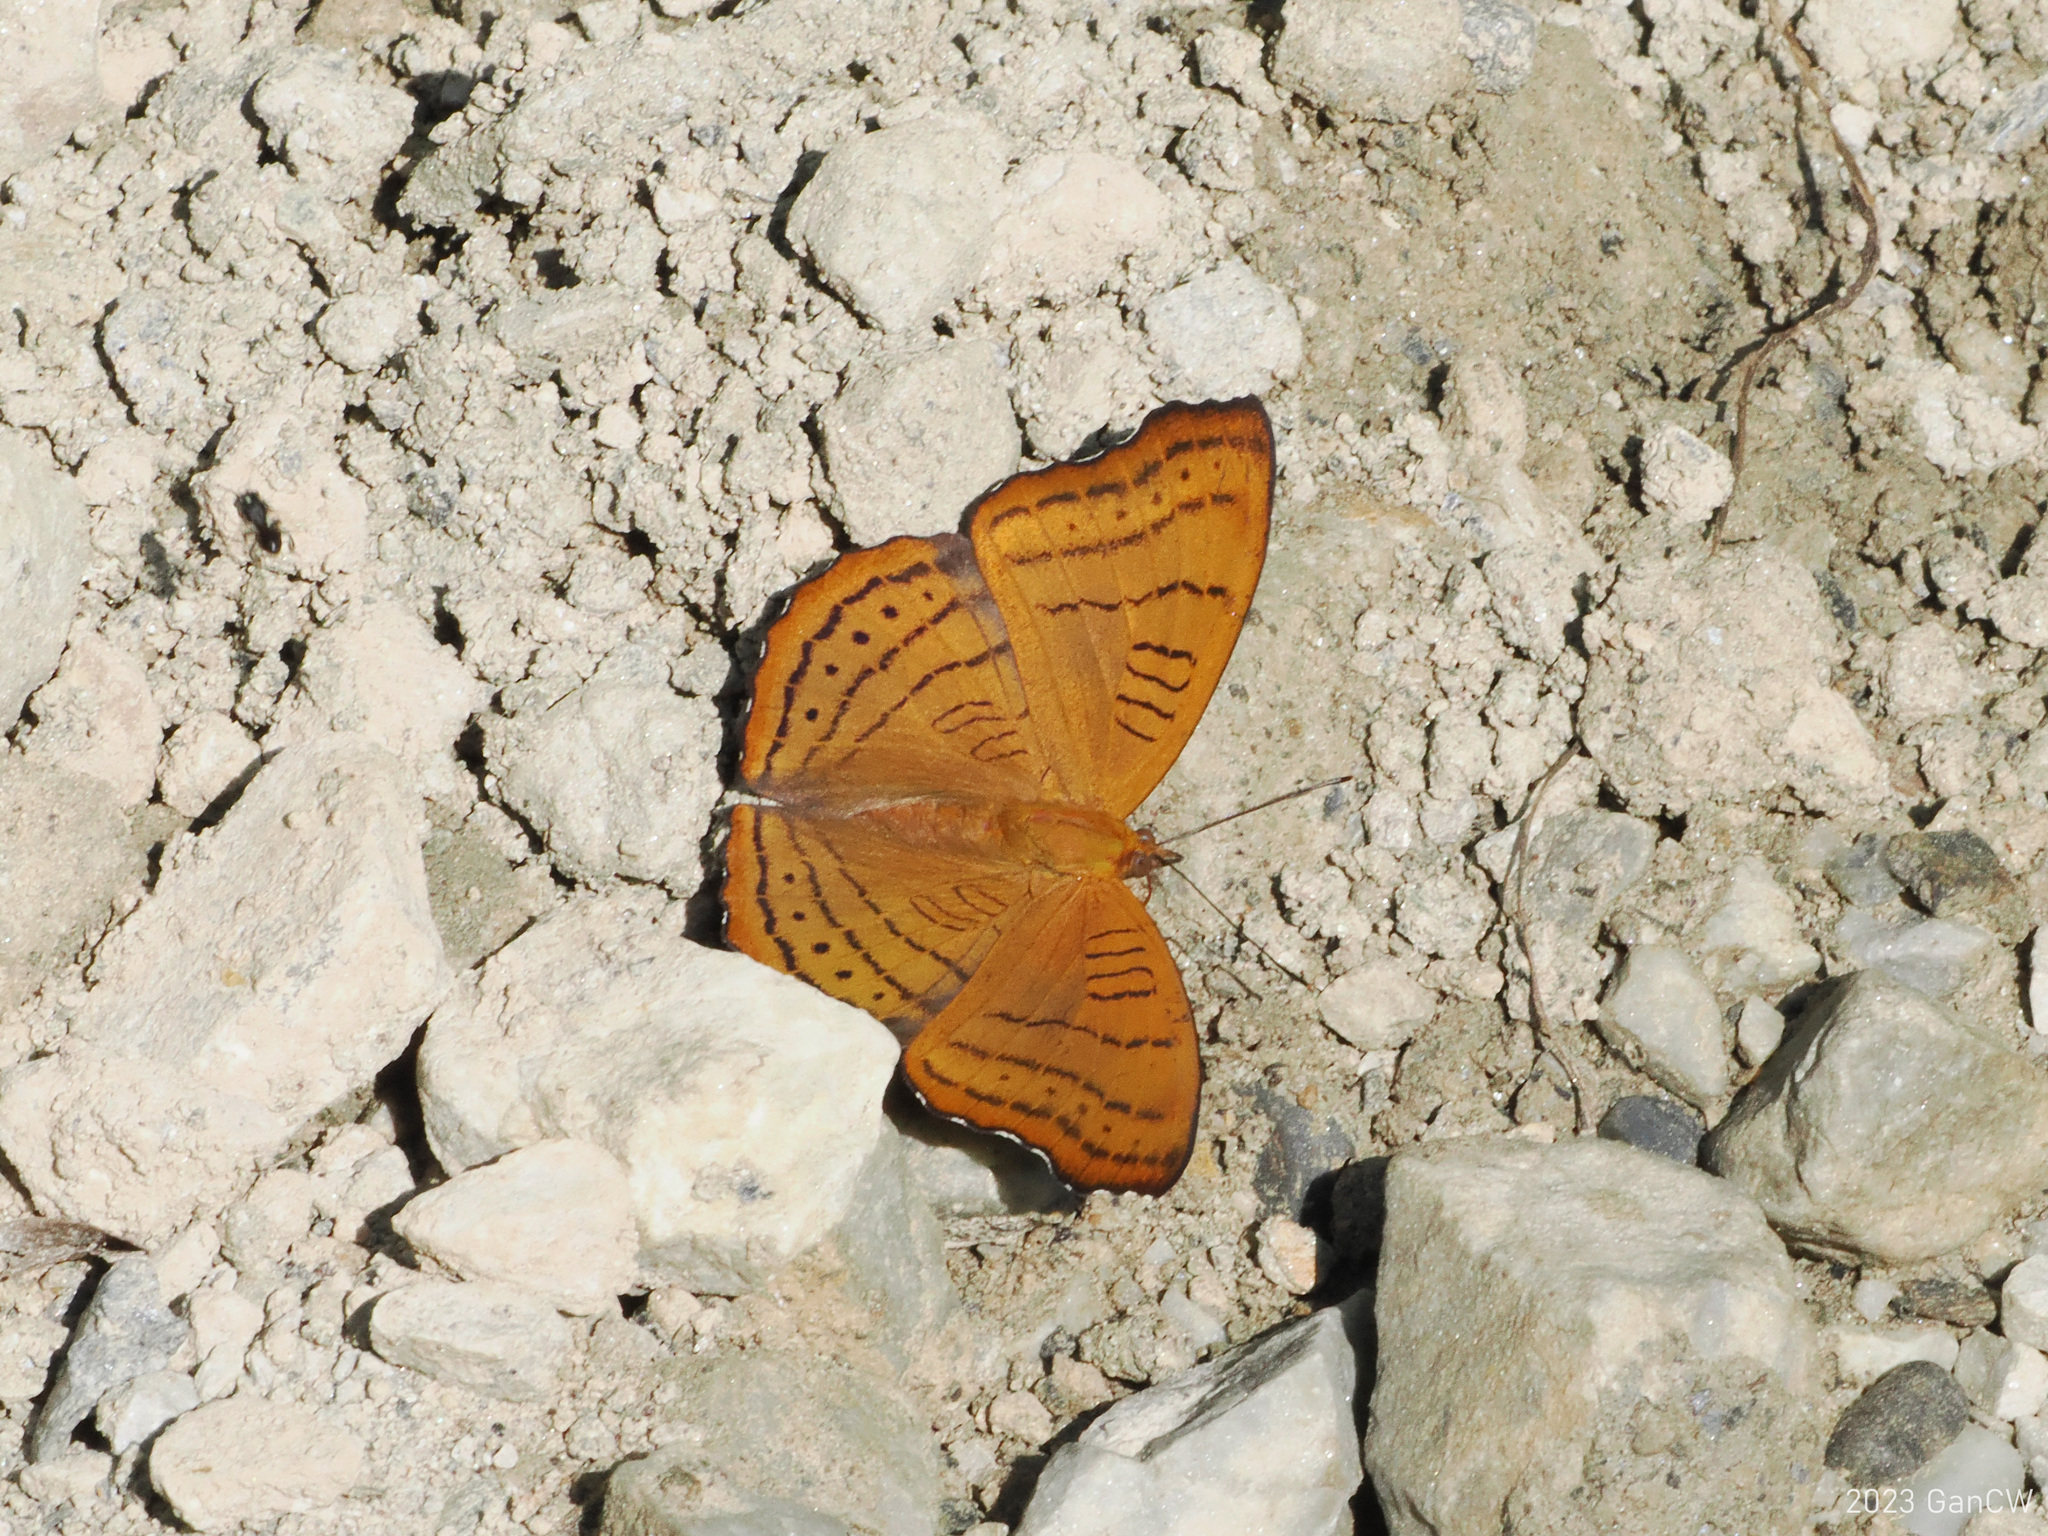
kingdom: Animalia
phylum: Arthropoda
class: Insecta
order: Lepidoptera
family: Nymphalidae
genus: Pseudergolis
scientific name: Pseudergolis wedah
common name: Tabby
